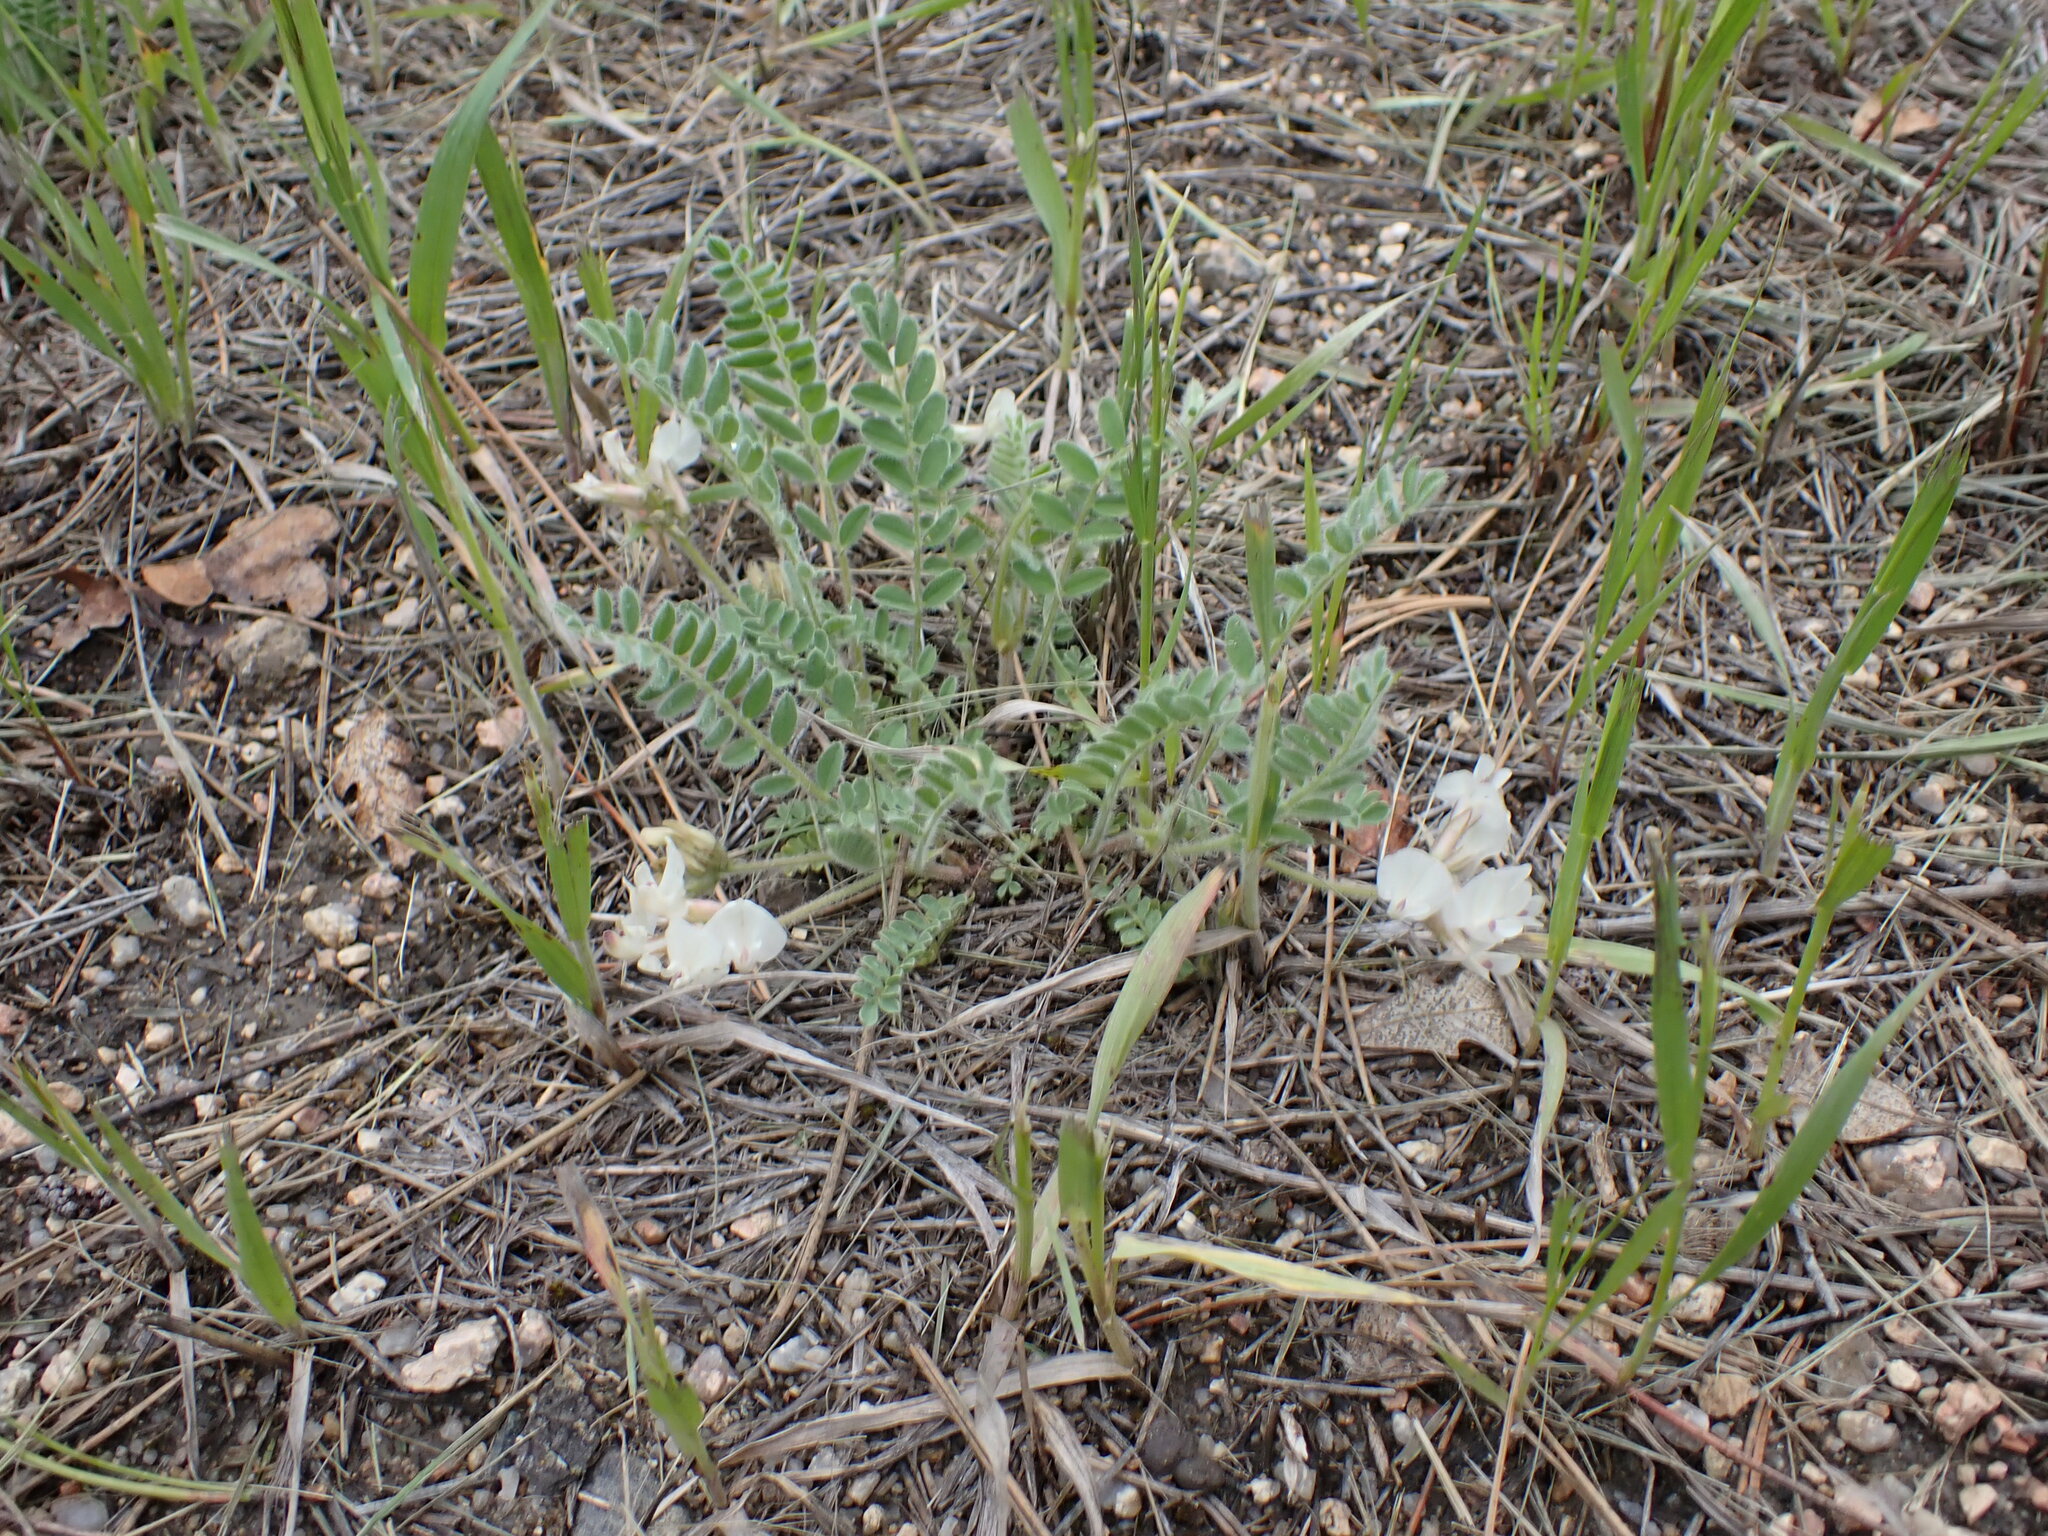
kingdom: Plantae
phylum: Tracheophyta
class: Magnoliopsida
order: Fabales
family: Fabaceae
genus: Astragalus
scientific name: Astragalus parryi
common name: Parry milk-vetch
